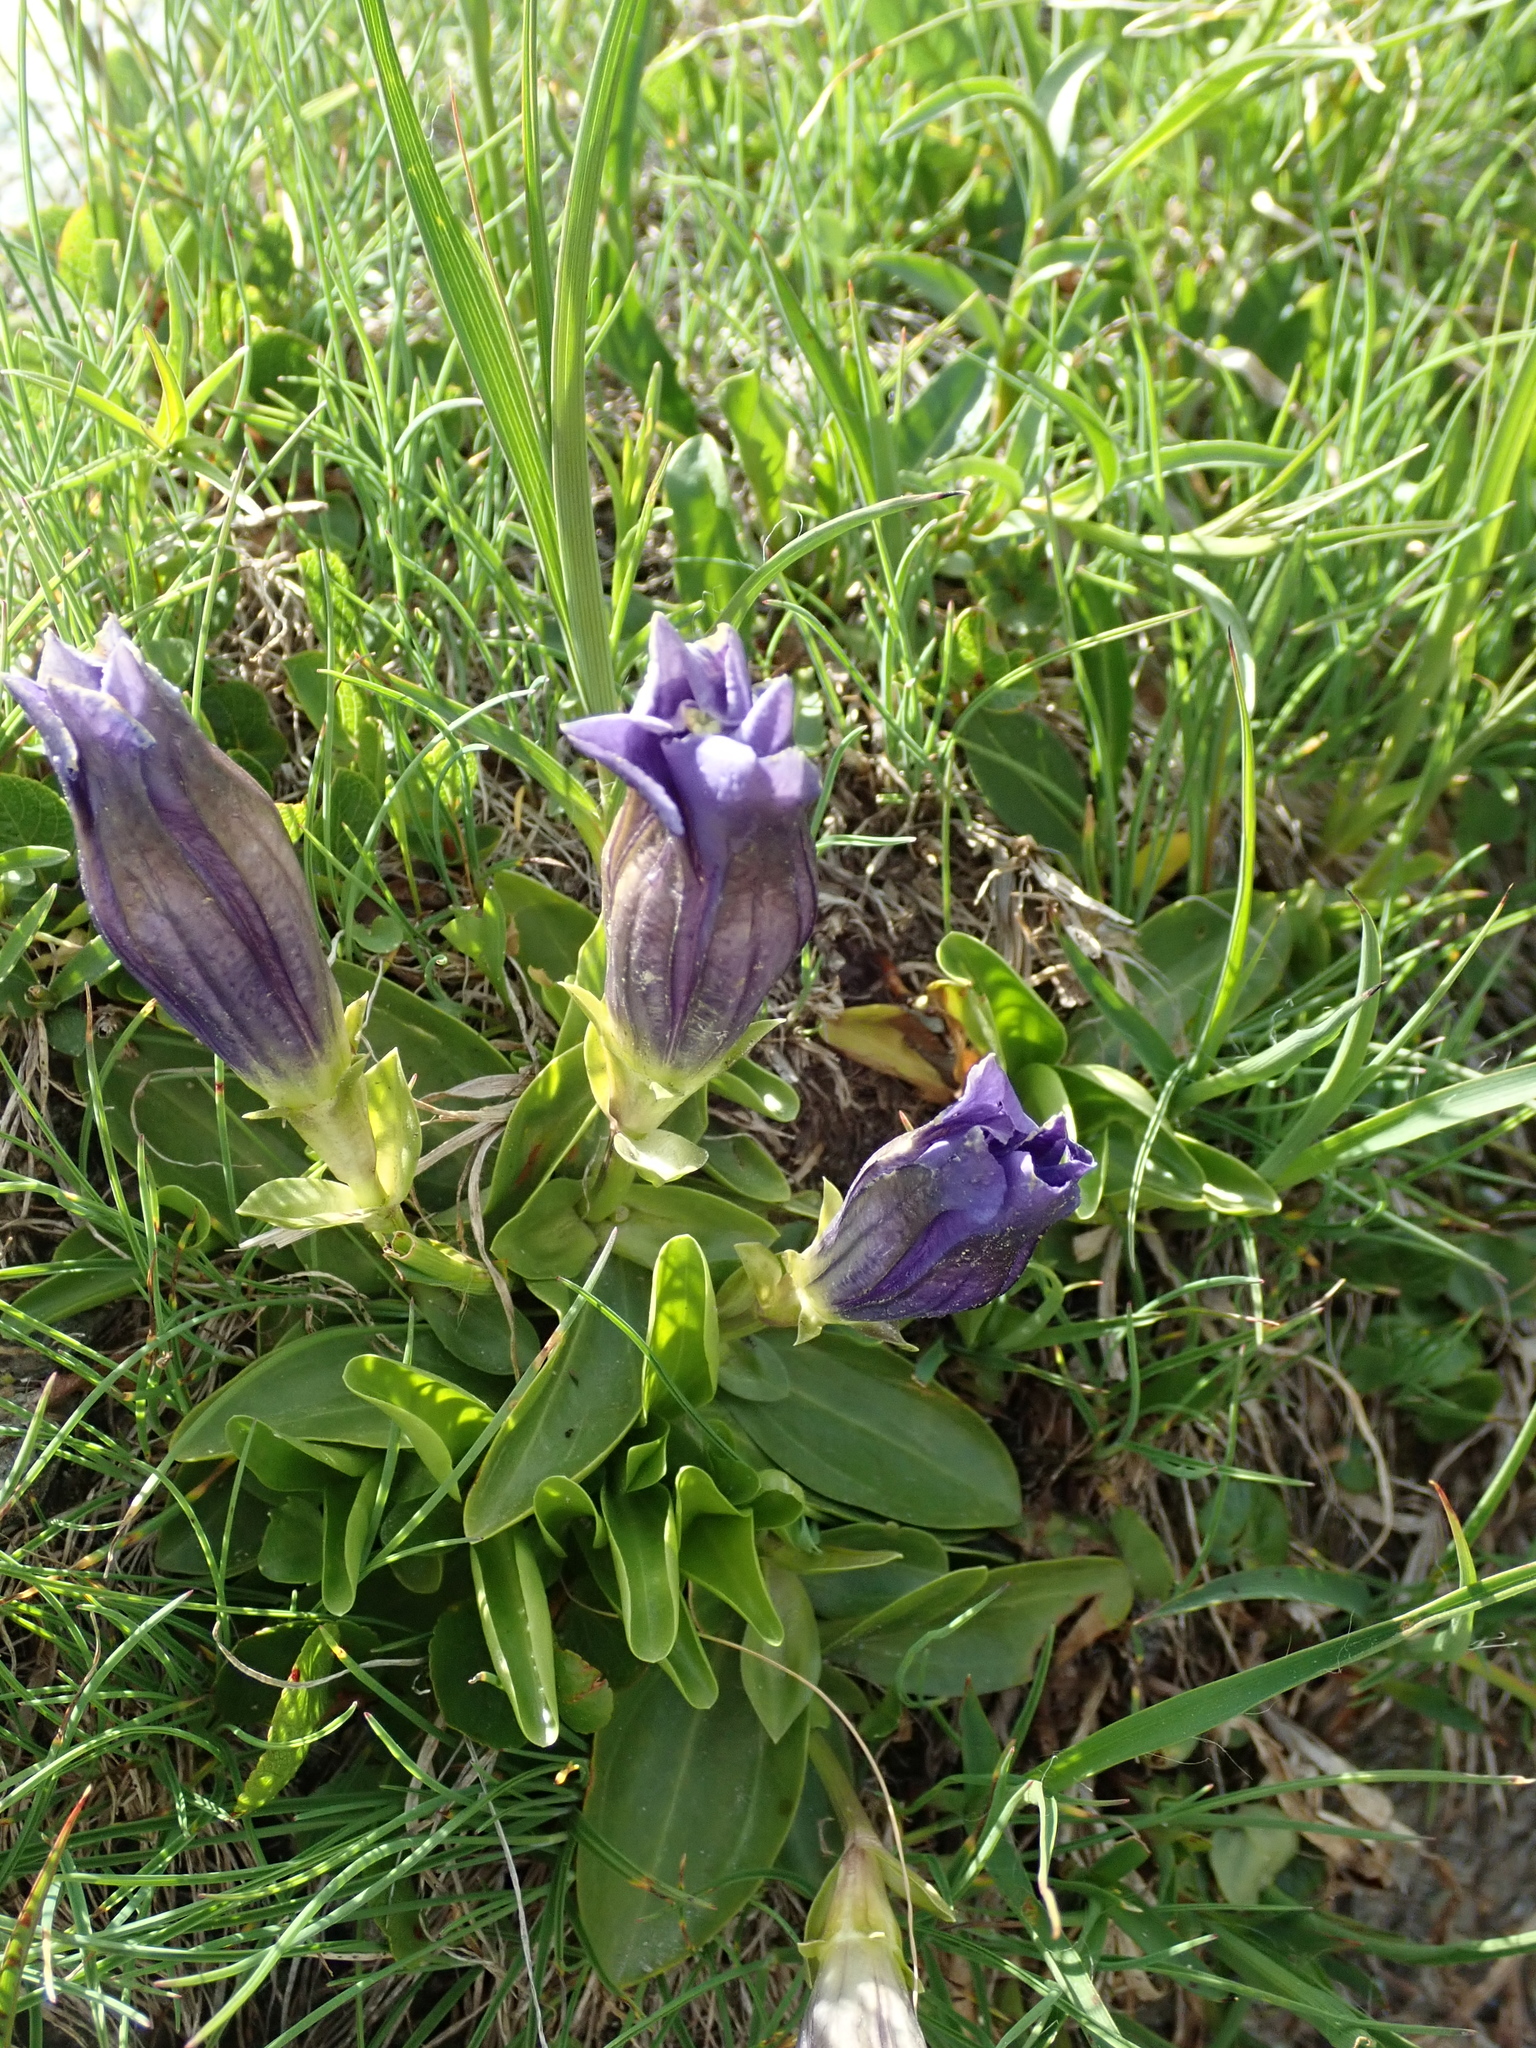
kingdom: Plantae
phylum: Tracheophyta
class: Magnoliopsida
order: Gentianales
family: Gentianaceae
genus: Gentiana
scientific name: Gentiana acaulis
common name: Trumpet gentian
